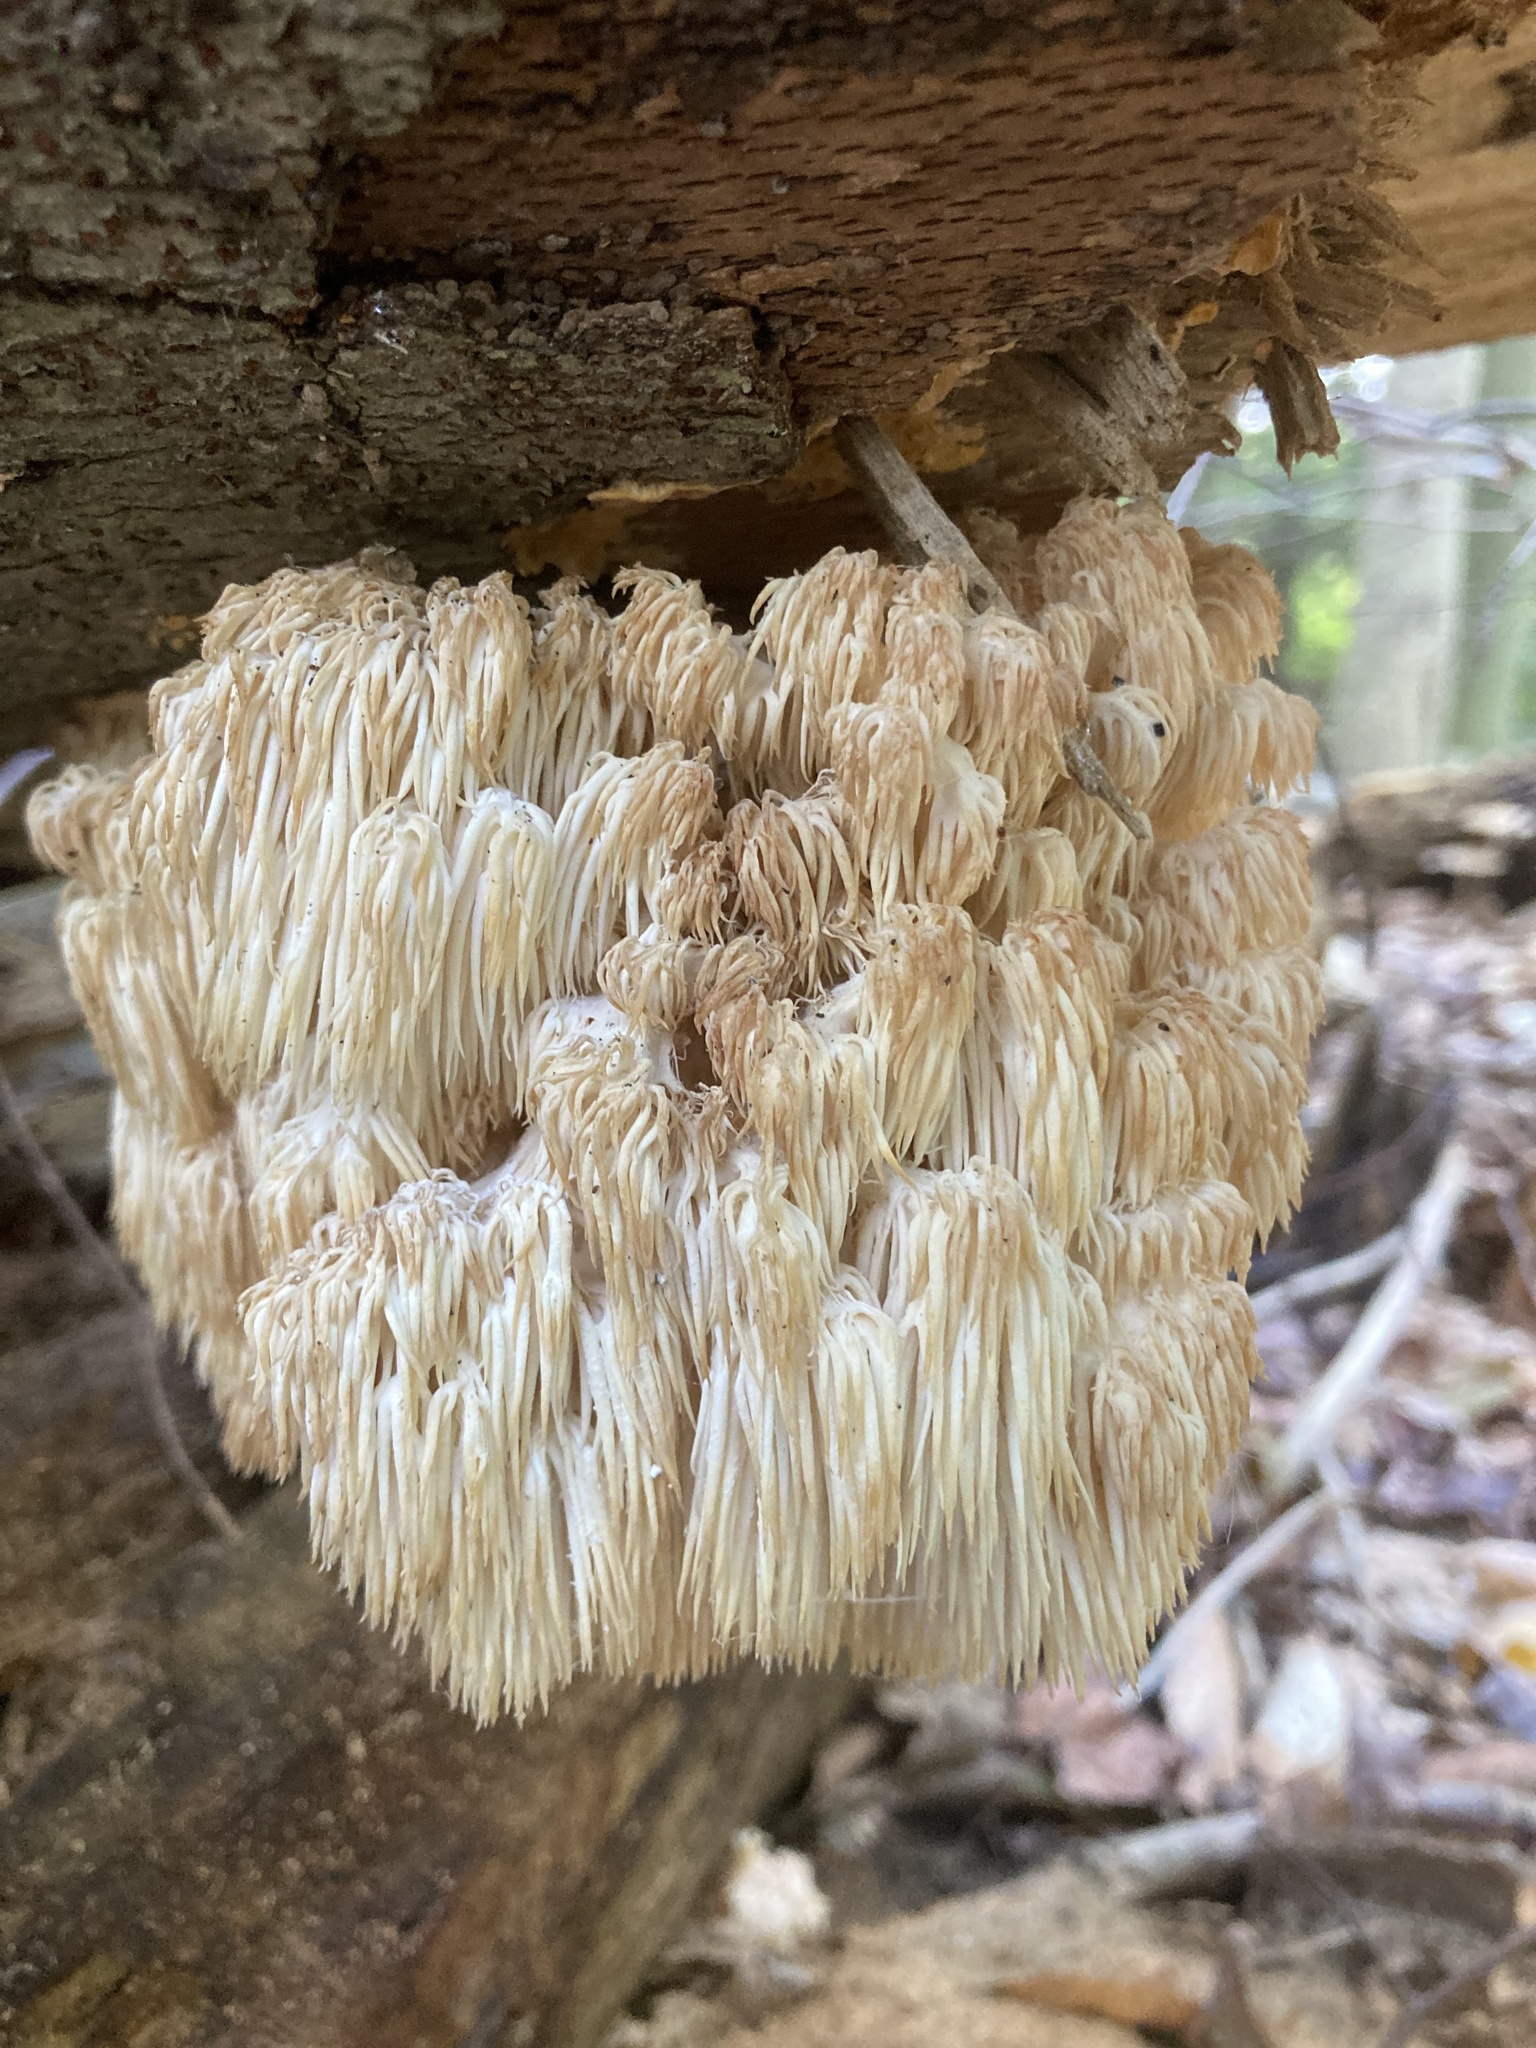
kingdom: Fungi
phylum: Basidiomycota
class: Agaricomycetes
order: Russulales
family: Hericiaceae
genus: Hericium
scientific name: Hericium americanum
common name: Bear's head tooth
